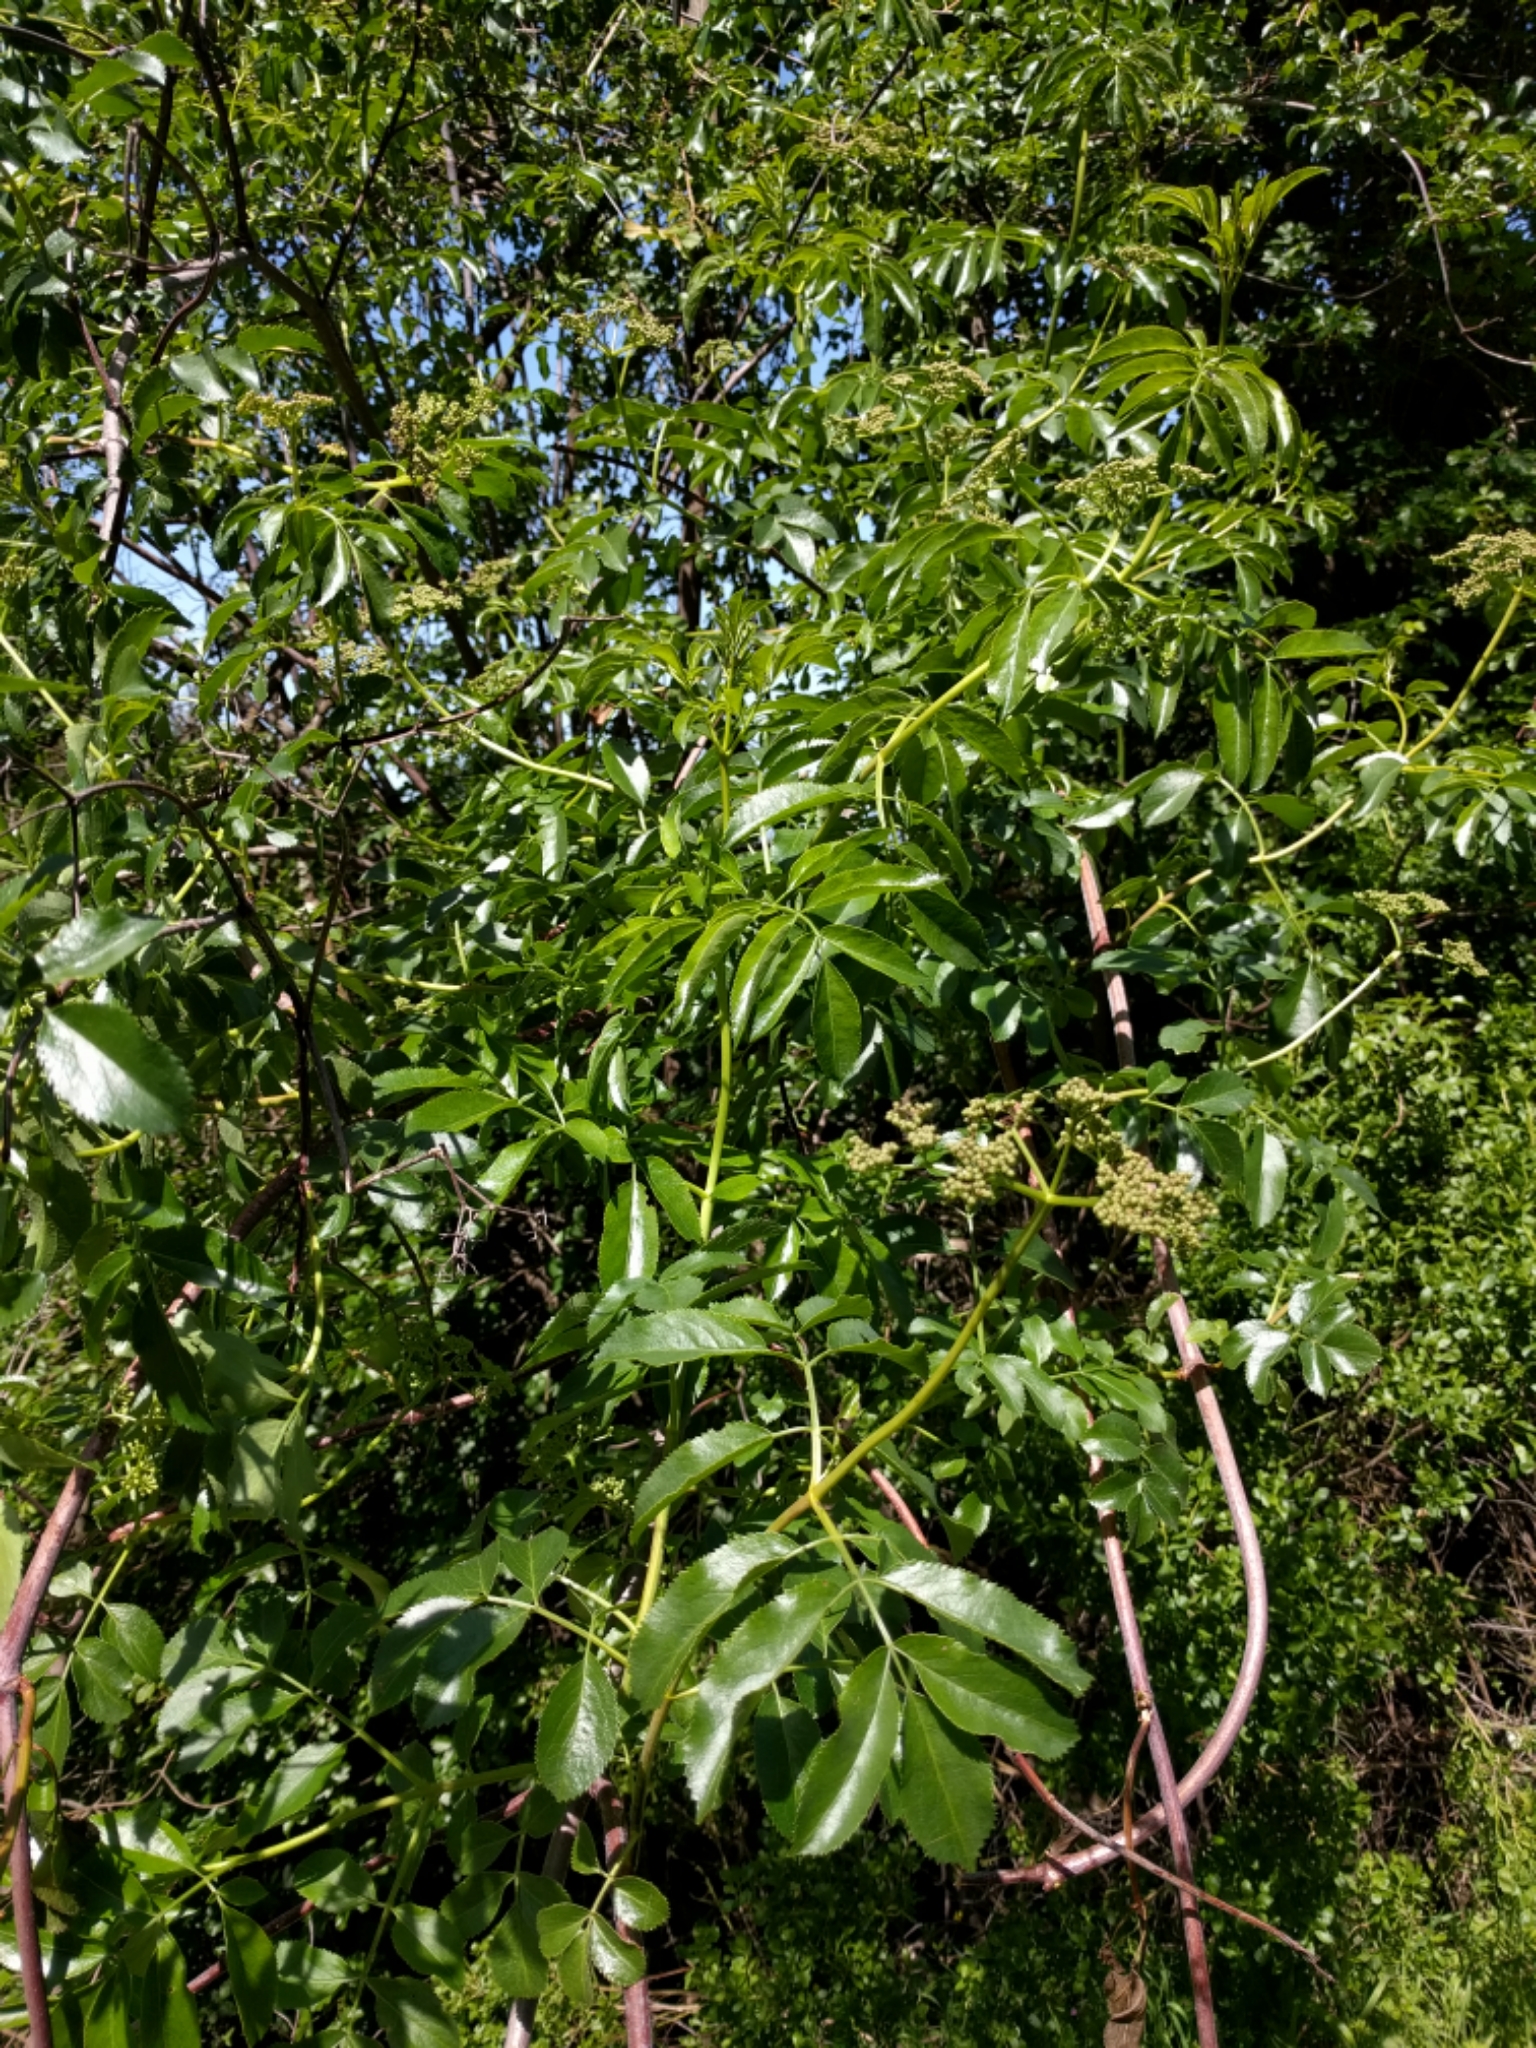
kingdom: Plantae
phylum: Tracheophyta
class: Magnoliopsida
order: Dipsacales
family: Viburnaceae
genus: Sambucus
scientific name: Sambucus cerulea
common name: Blue elder
